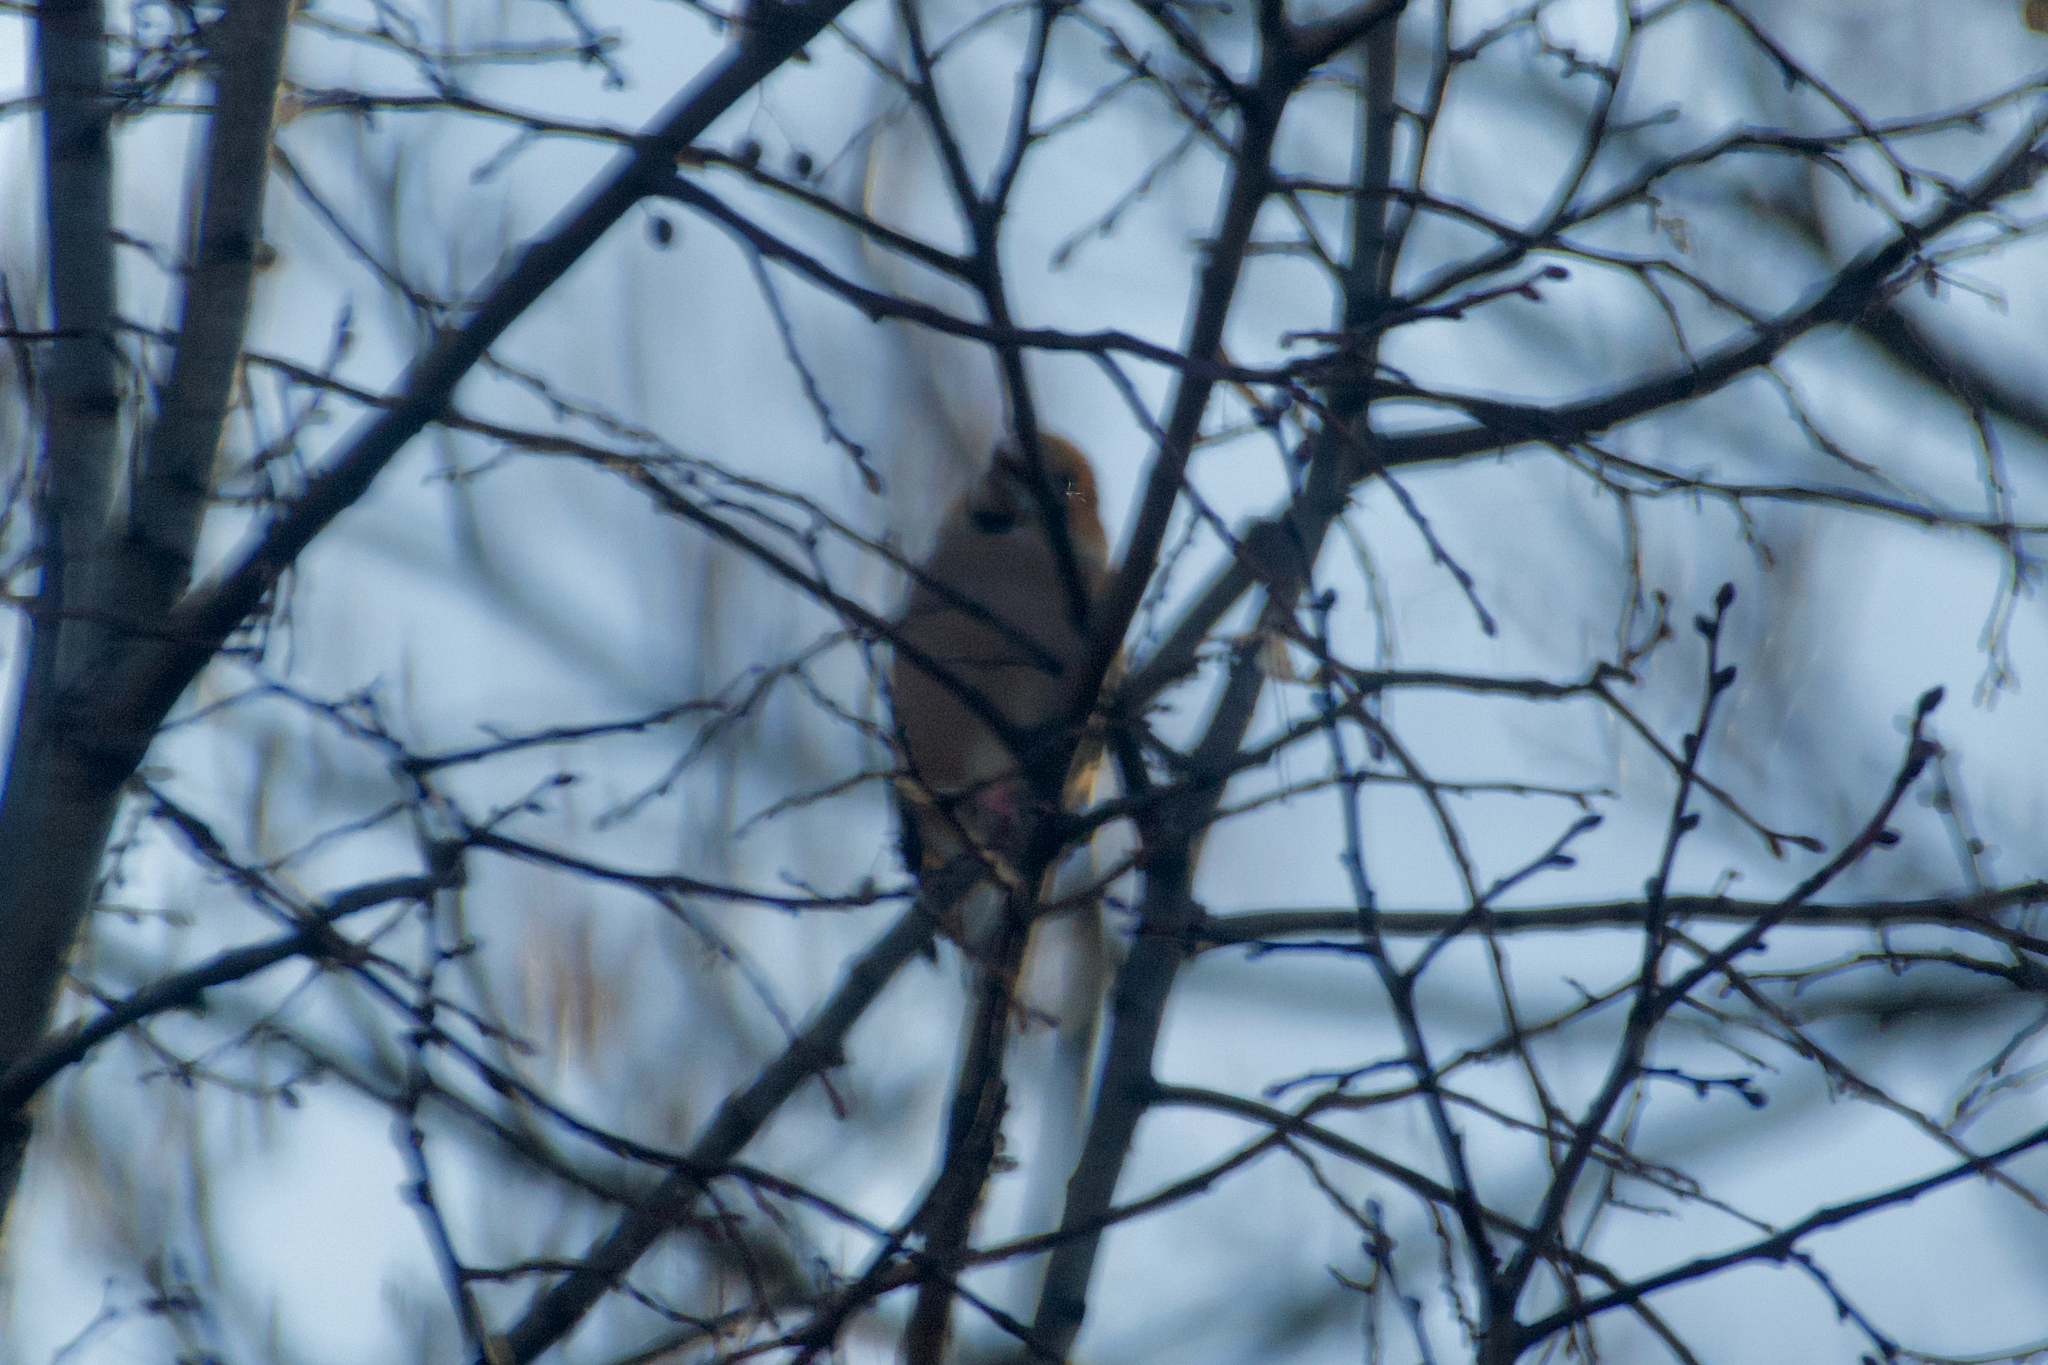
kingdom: Animalia
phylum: Chordata
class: Aves
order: Passeriformes
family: Fringillidae
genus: Coccothraustes
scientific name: Coccothraustes coccothraustes
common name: Hawfinch
